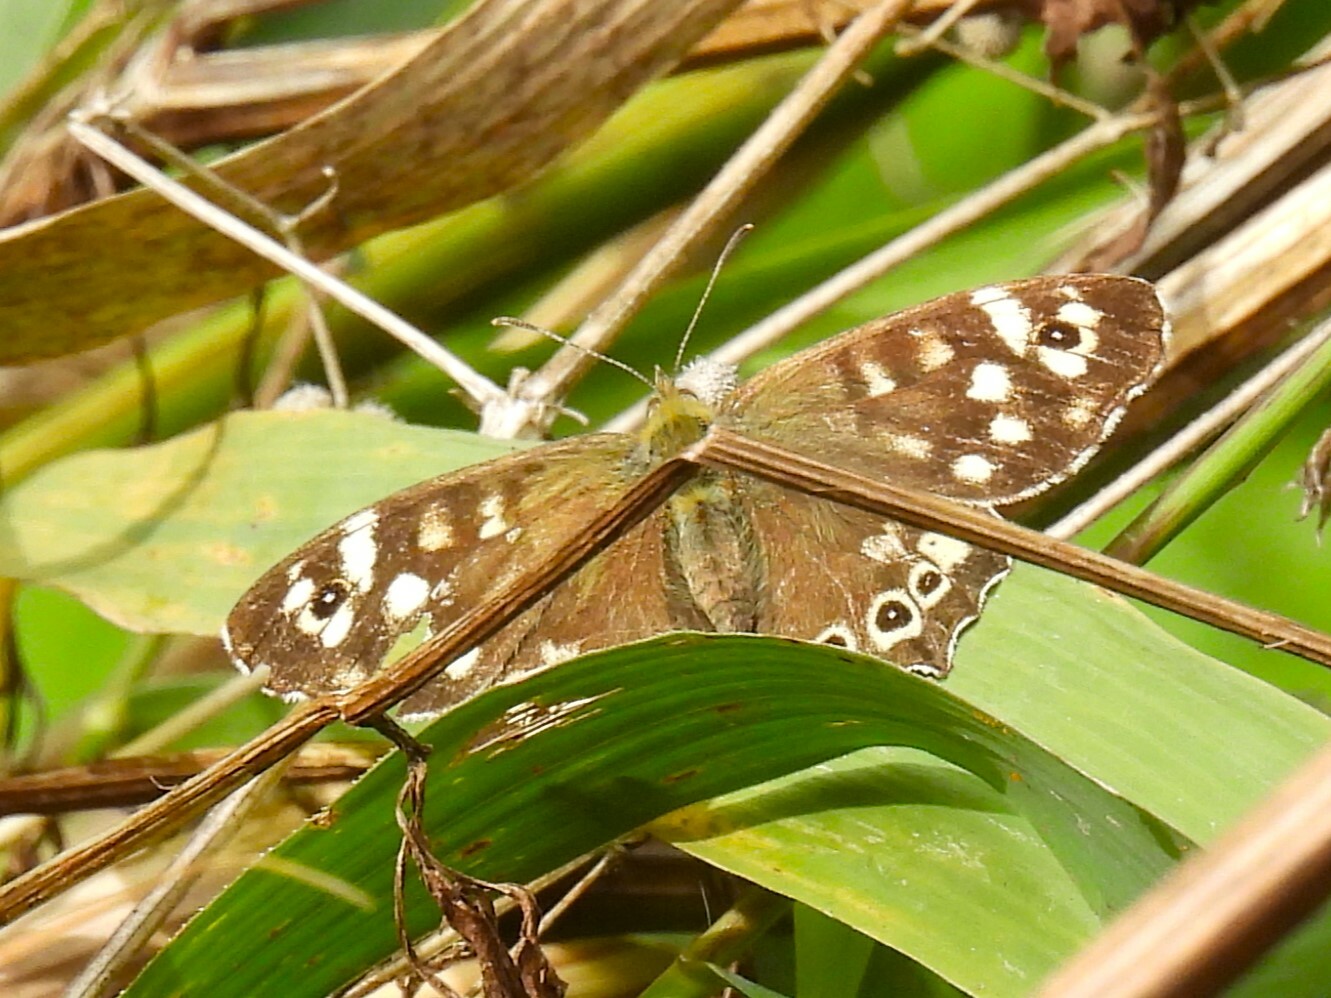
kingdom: Animalia
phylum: Arthropoda
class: Insecta
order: Lepidoptera
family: Nymphalidae
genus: Pararge
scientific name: Pararge aegeria
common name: Speckled wood
